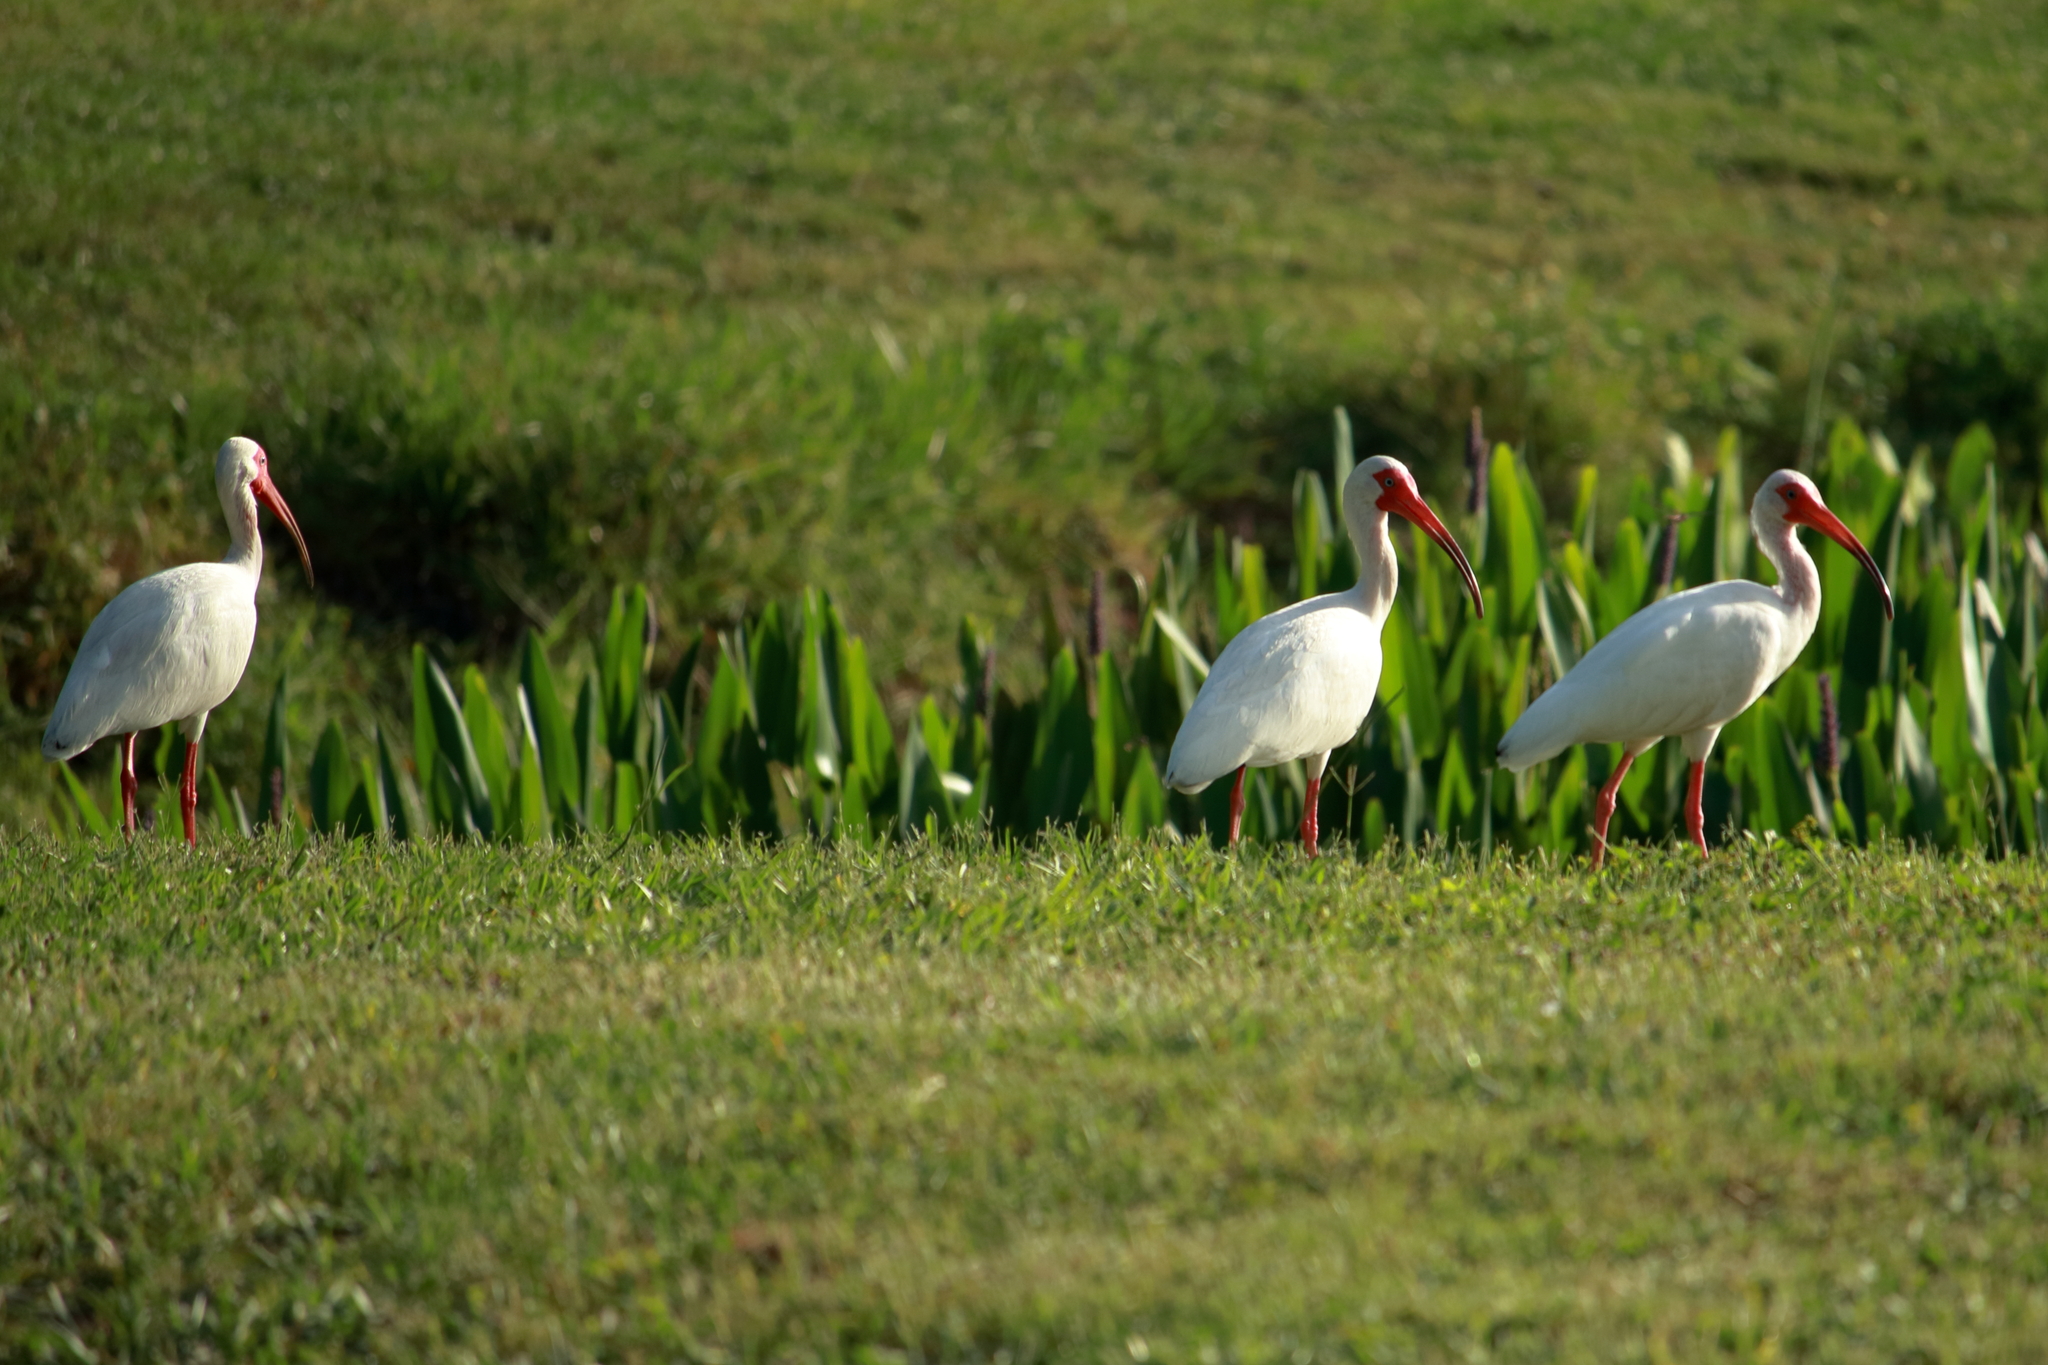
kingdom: Animalia
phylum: Chordata
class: Aves
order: Pelecaniformes
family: Threskiornithidae
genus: Eudocimus
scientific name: Eudocimus albus
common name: White ibis
